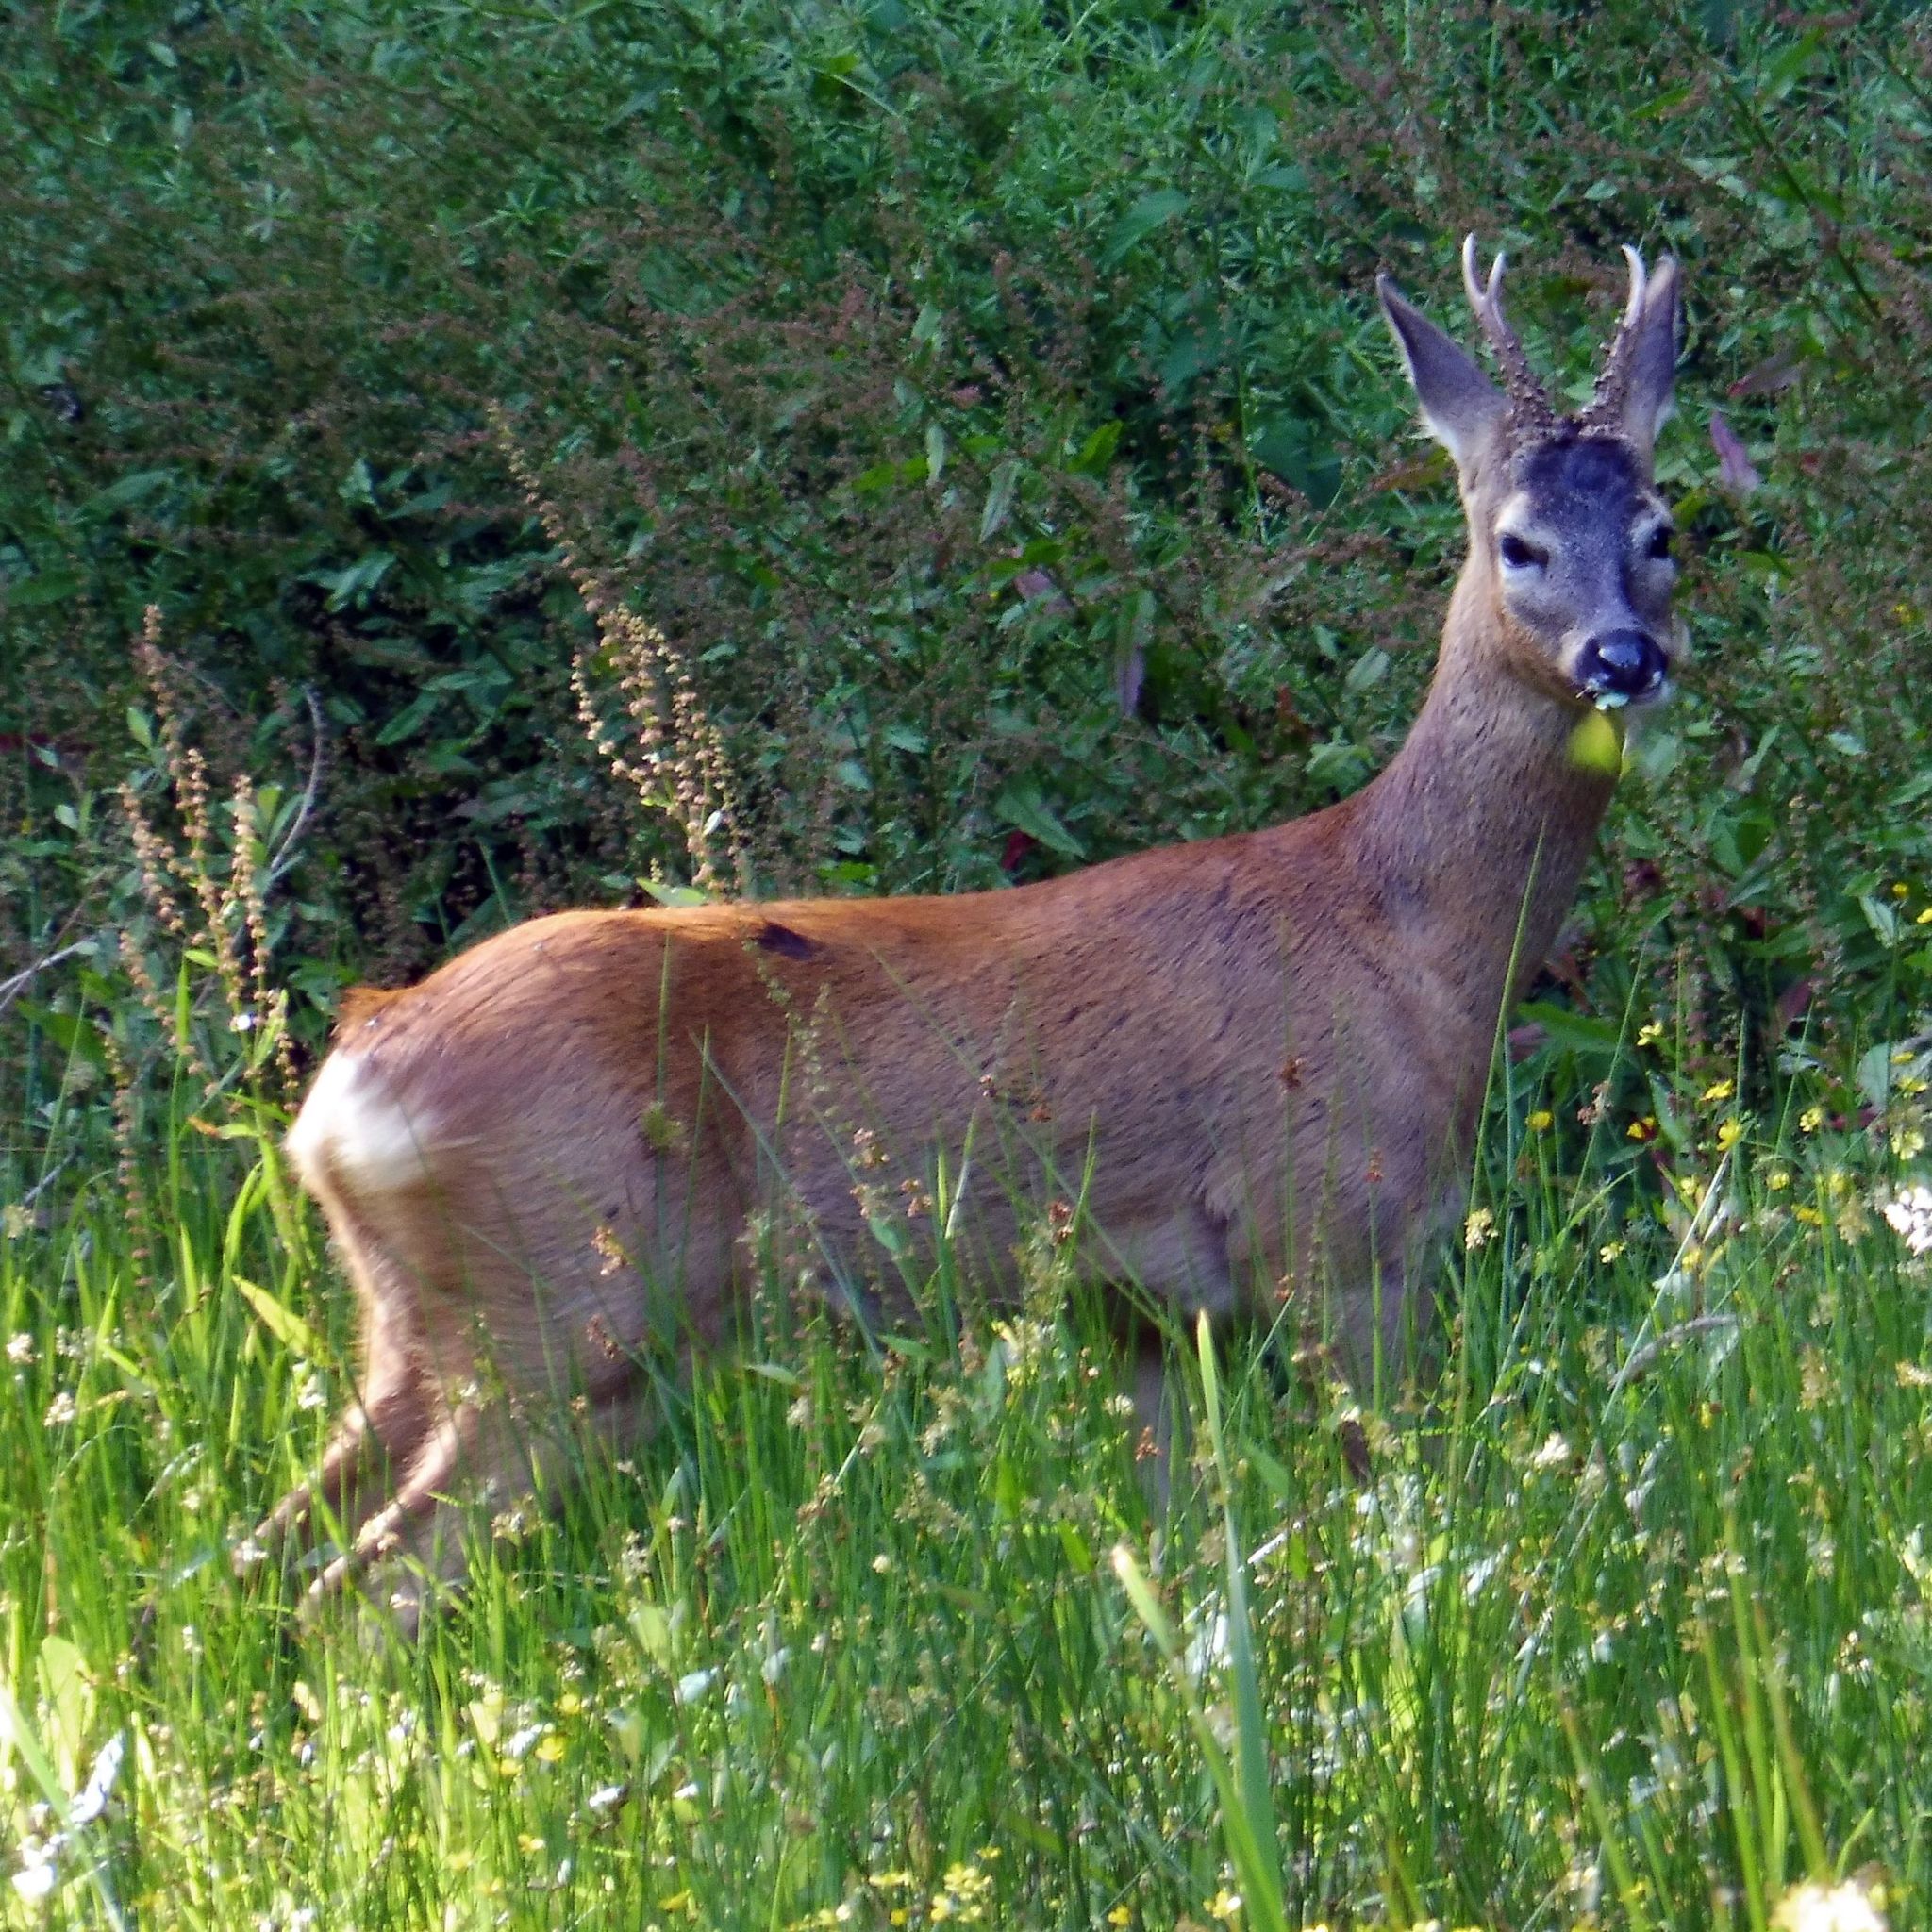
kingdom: Animalia
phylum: Chordata
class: Mammalia
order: Artiodactyla
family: Cervidae
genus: Capreolus
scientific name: Capreolus capreolus
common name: Western roe deer
